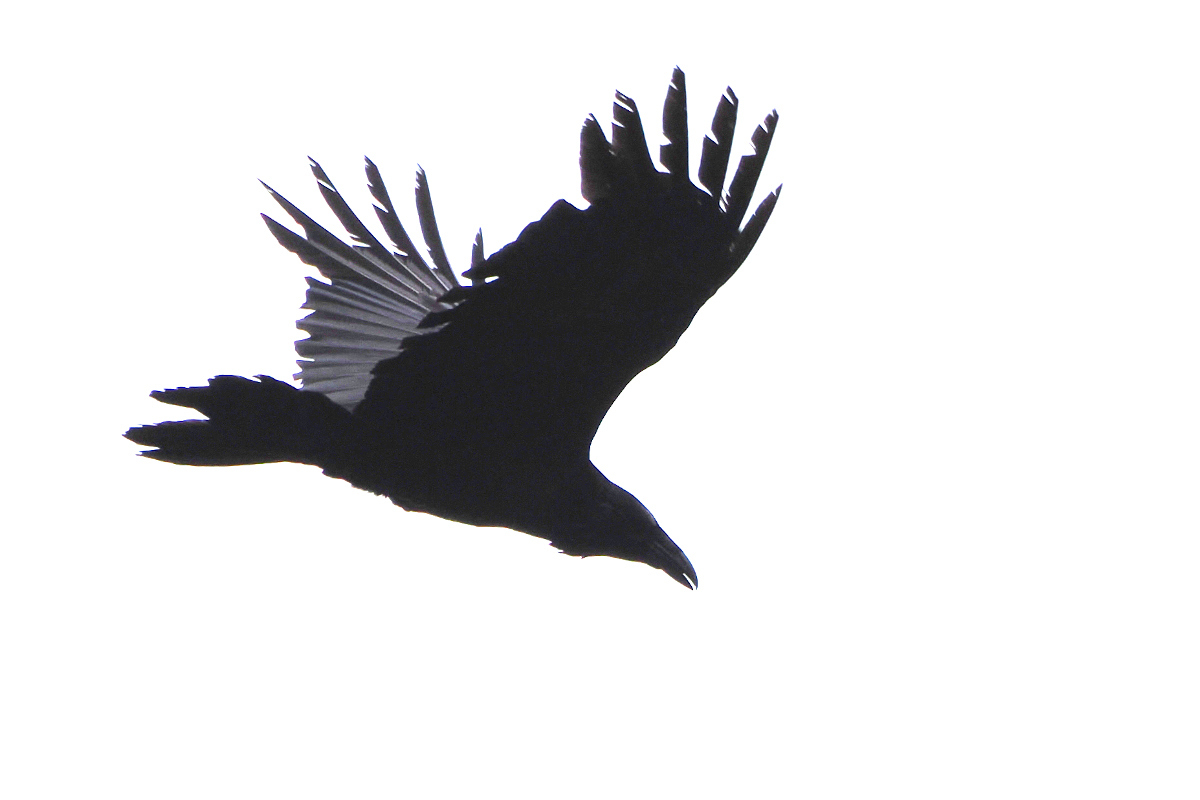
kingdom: Animalia
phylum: Chordata
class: Aves
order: Passeriformes
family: Corvidae
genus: Corvus
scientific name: Corvus corax
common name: Common raven
